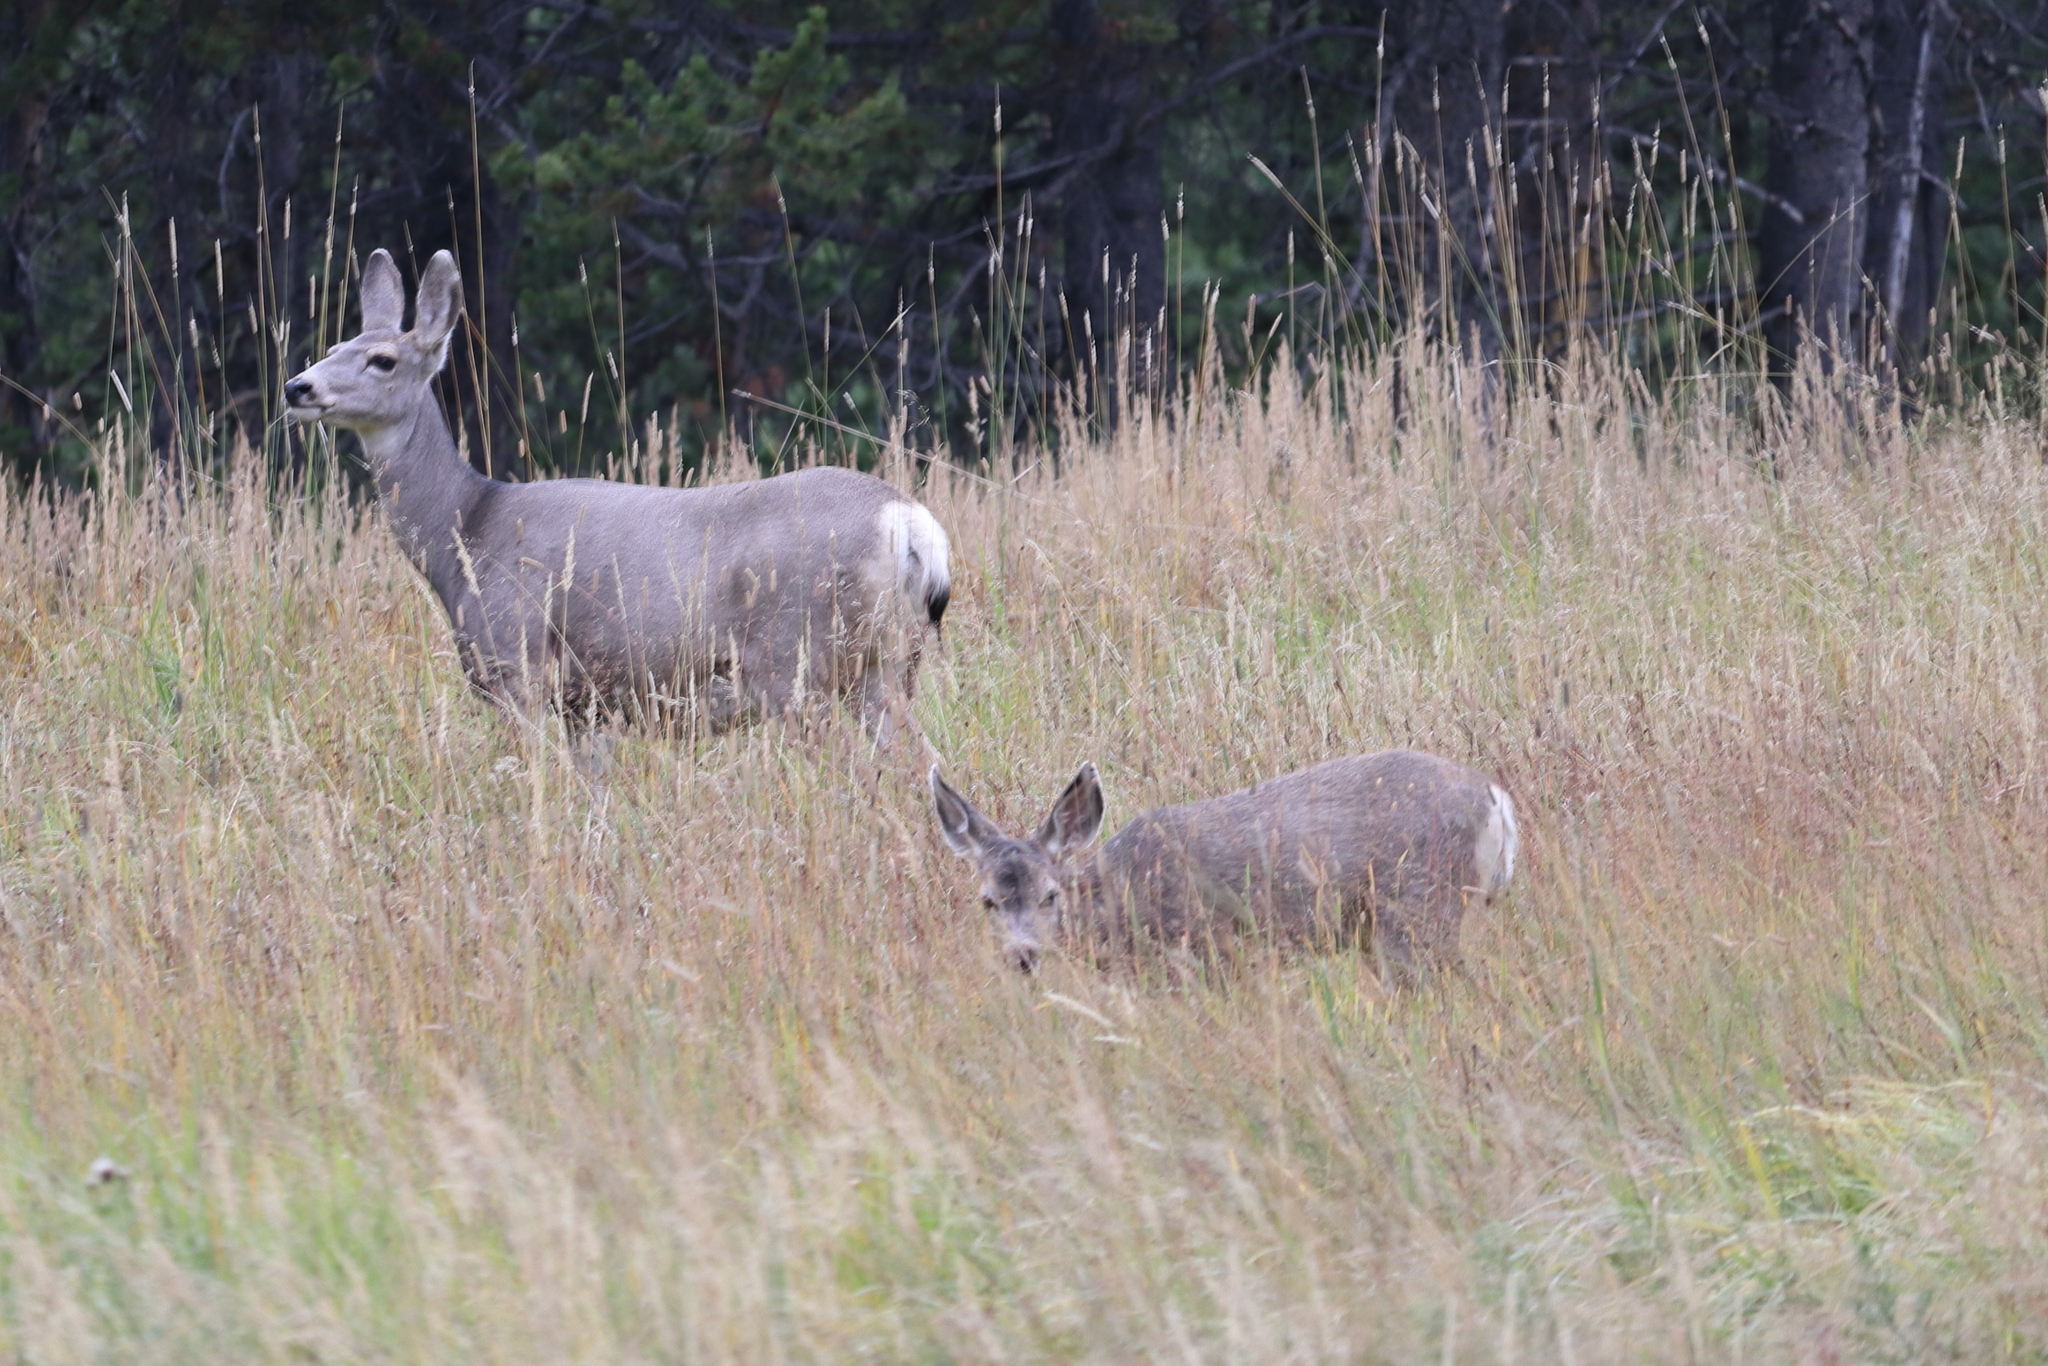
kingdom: Animalia
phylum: Chordata
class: Mammalia
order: Artiodactyla
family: Cervidae
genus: Odocoileus
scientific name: Odocoileus hemionus
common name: Mule deer
